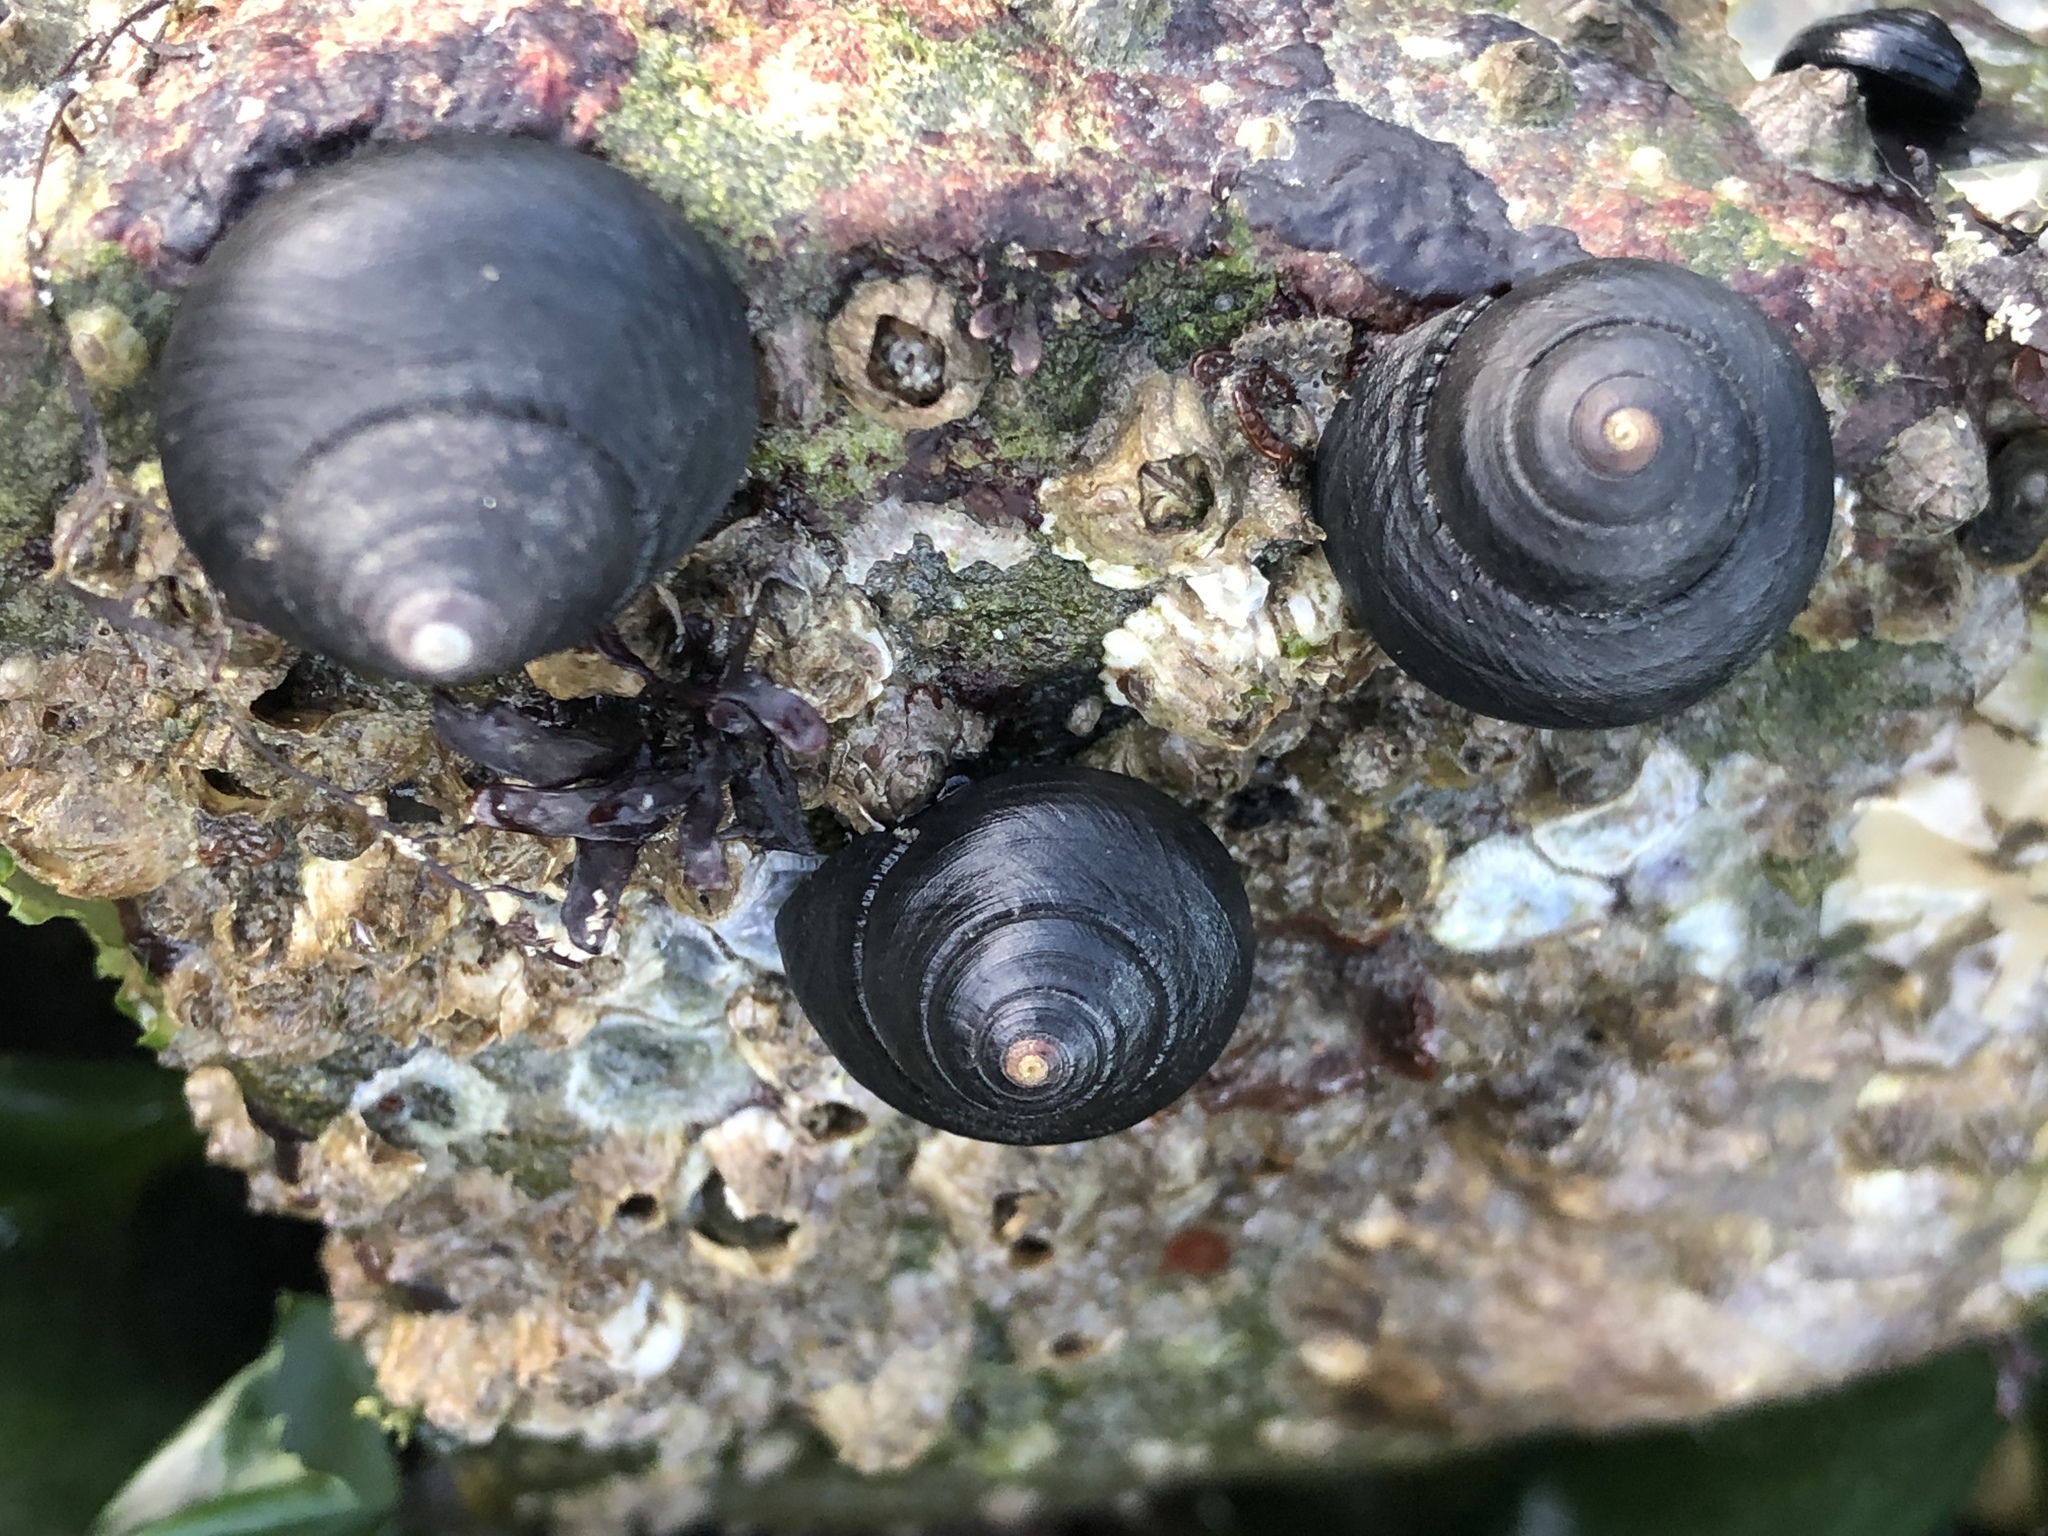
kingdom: Animalia
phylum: Mollusca
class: Gastropoda
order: Trochida
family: Tegulidae
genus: Tegula
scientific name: Tegula funebralis
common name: Black tegula
